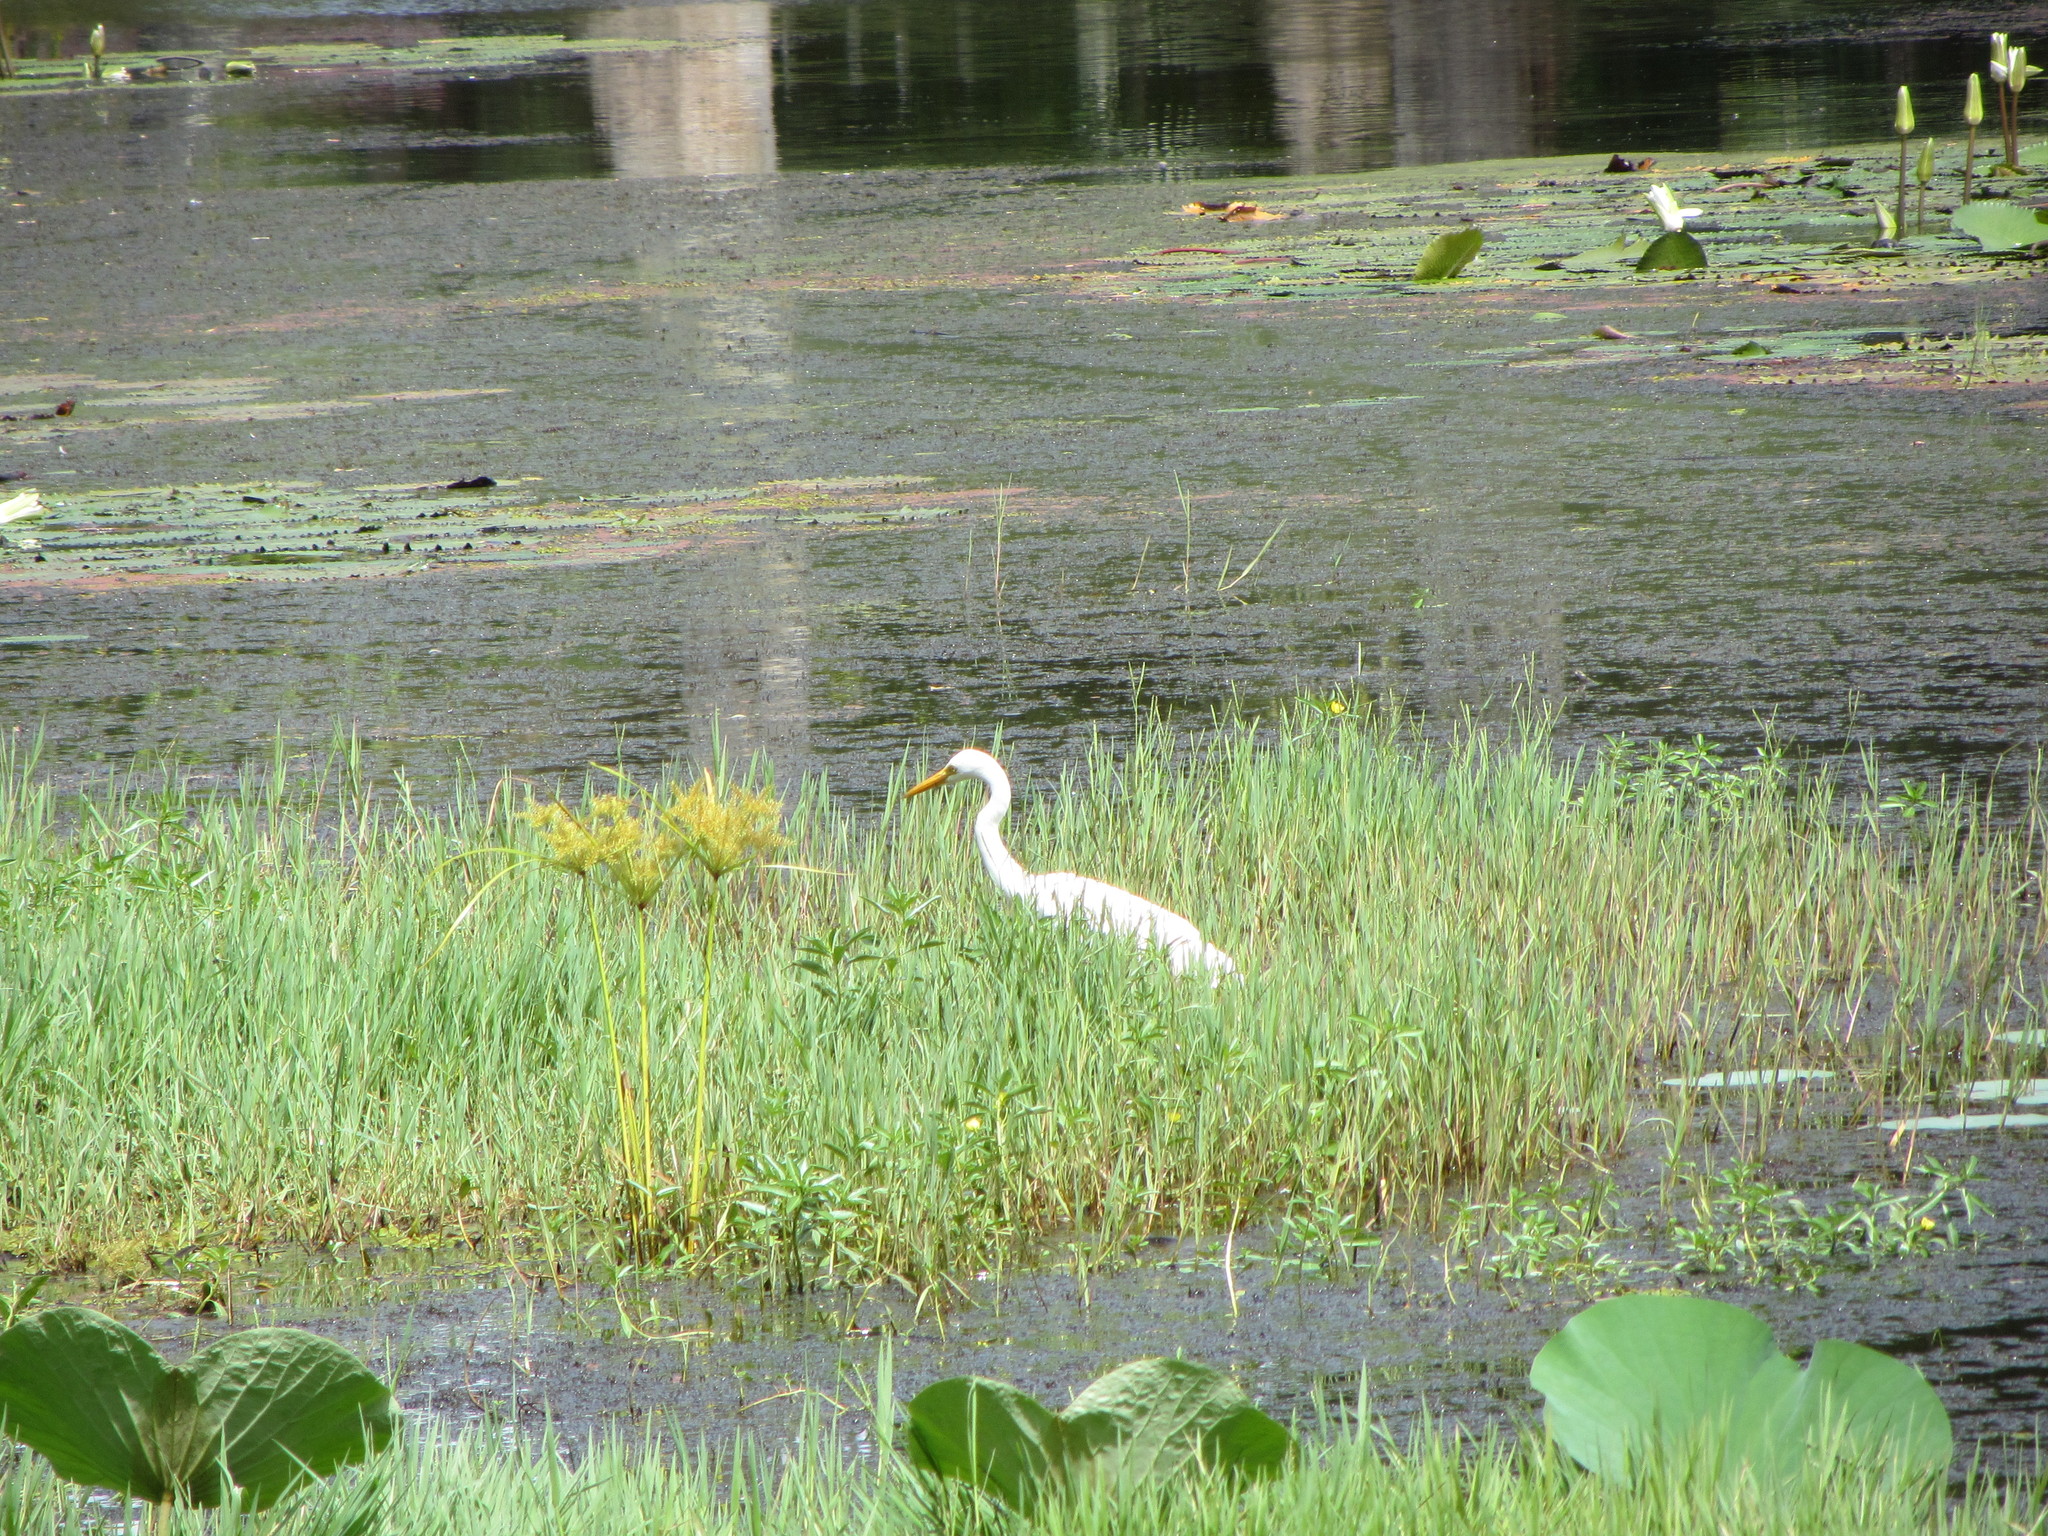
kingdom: Animalia
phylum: Chordata
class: Aves
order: Pelecaniformes
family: Ardeidae
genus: Egretta
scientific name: Egretta intermedia
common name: Intermediate egret
